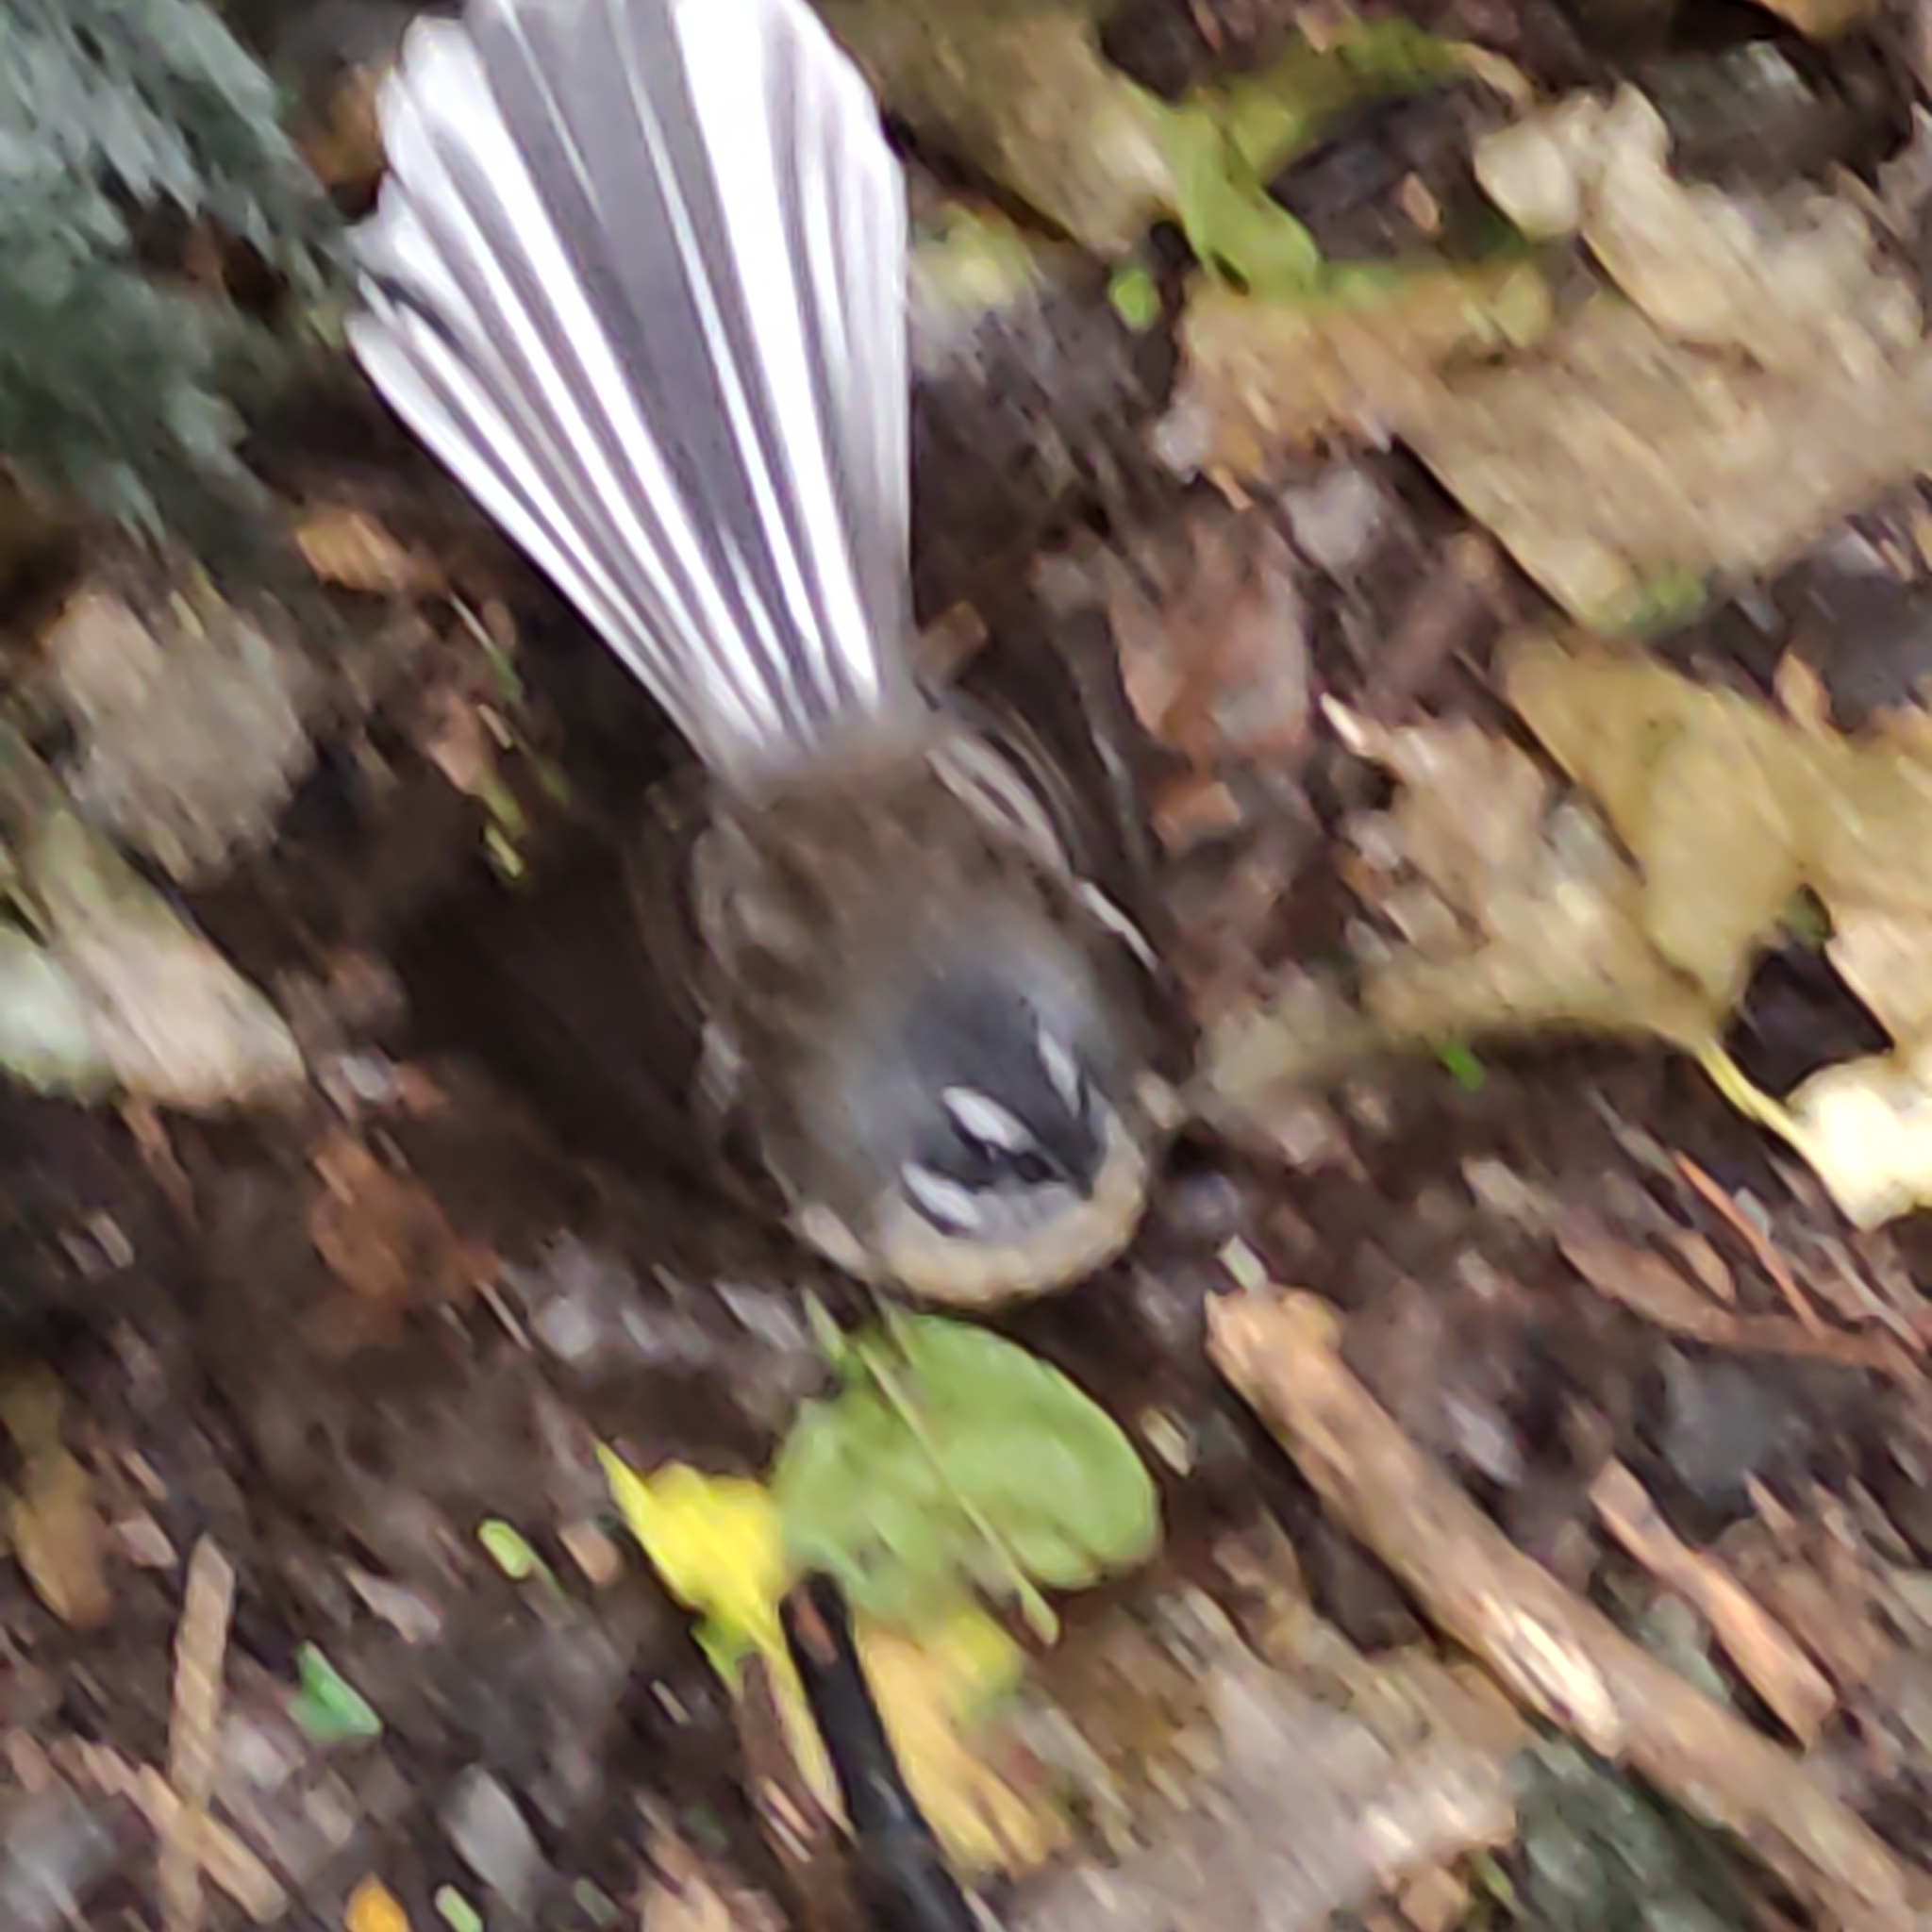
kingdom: Animalia
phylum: Chordata
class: Aves
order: Passeriformes
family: Rhipiduridae
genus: Rhipidura
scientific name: Rhipidura fuliginosa
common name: New zealand fantail
